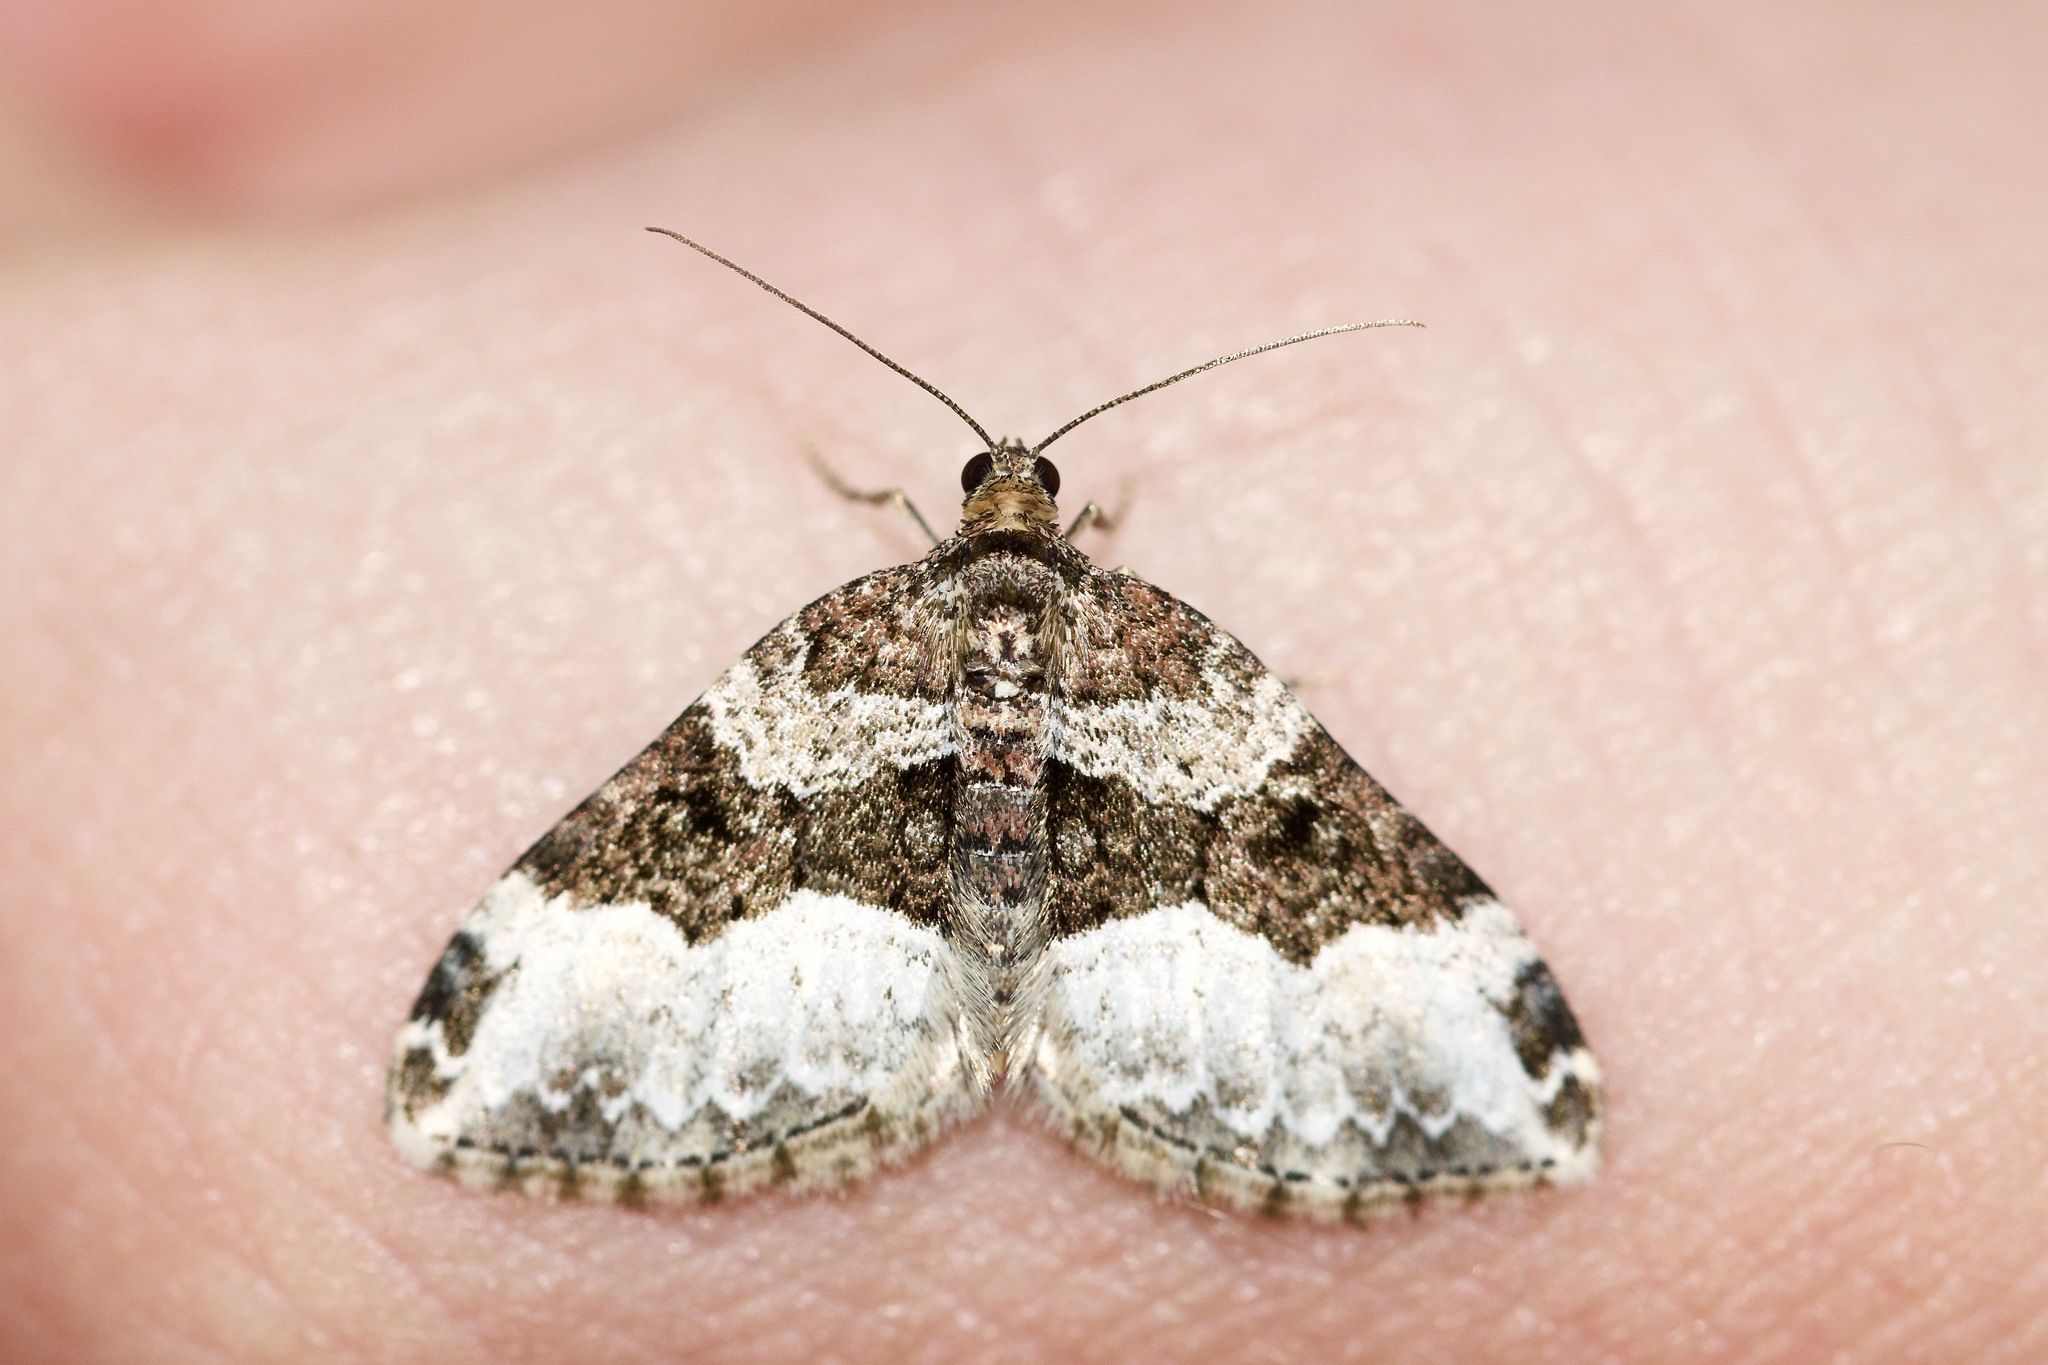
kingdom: Animalia
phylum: Arthropoda
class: Insecta
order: Lepidoptera
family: Geometridae
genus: Euphyia
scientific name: Euphyia intermediata
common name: Sharp-angled carpet
